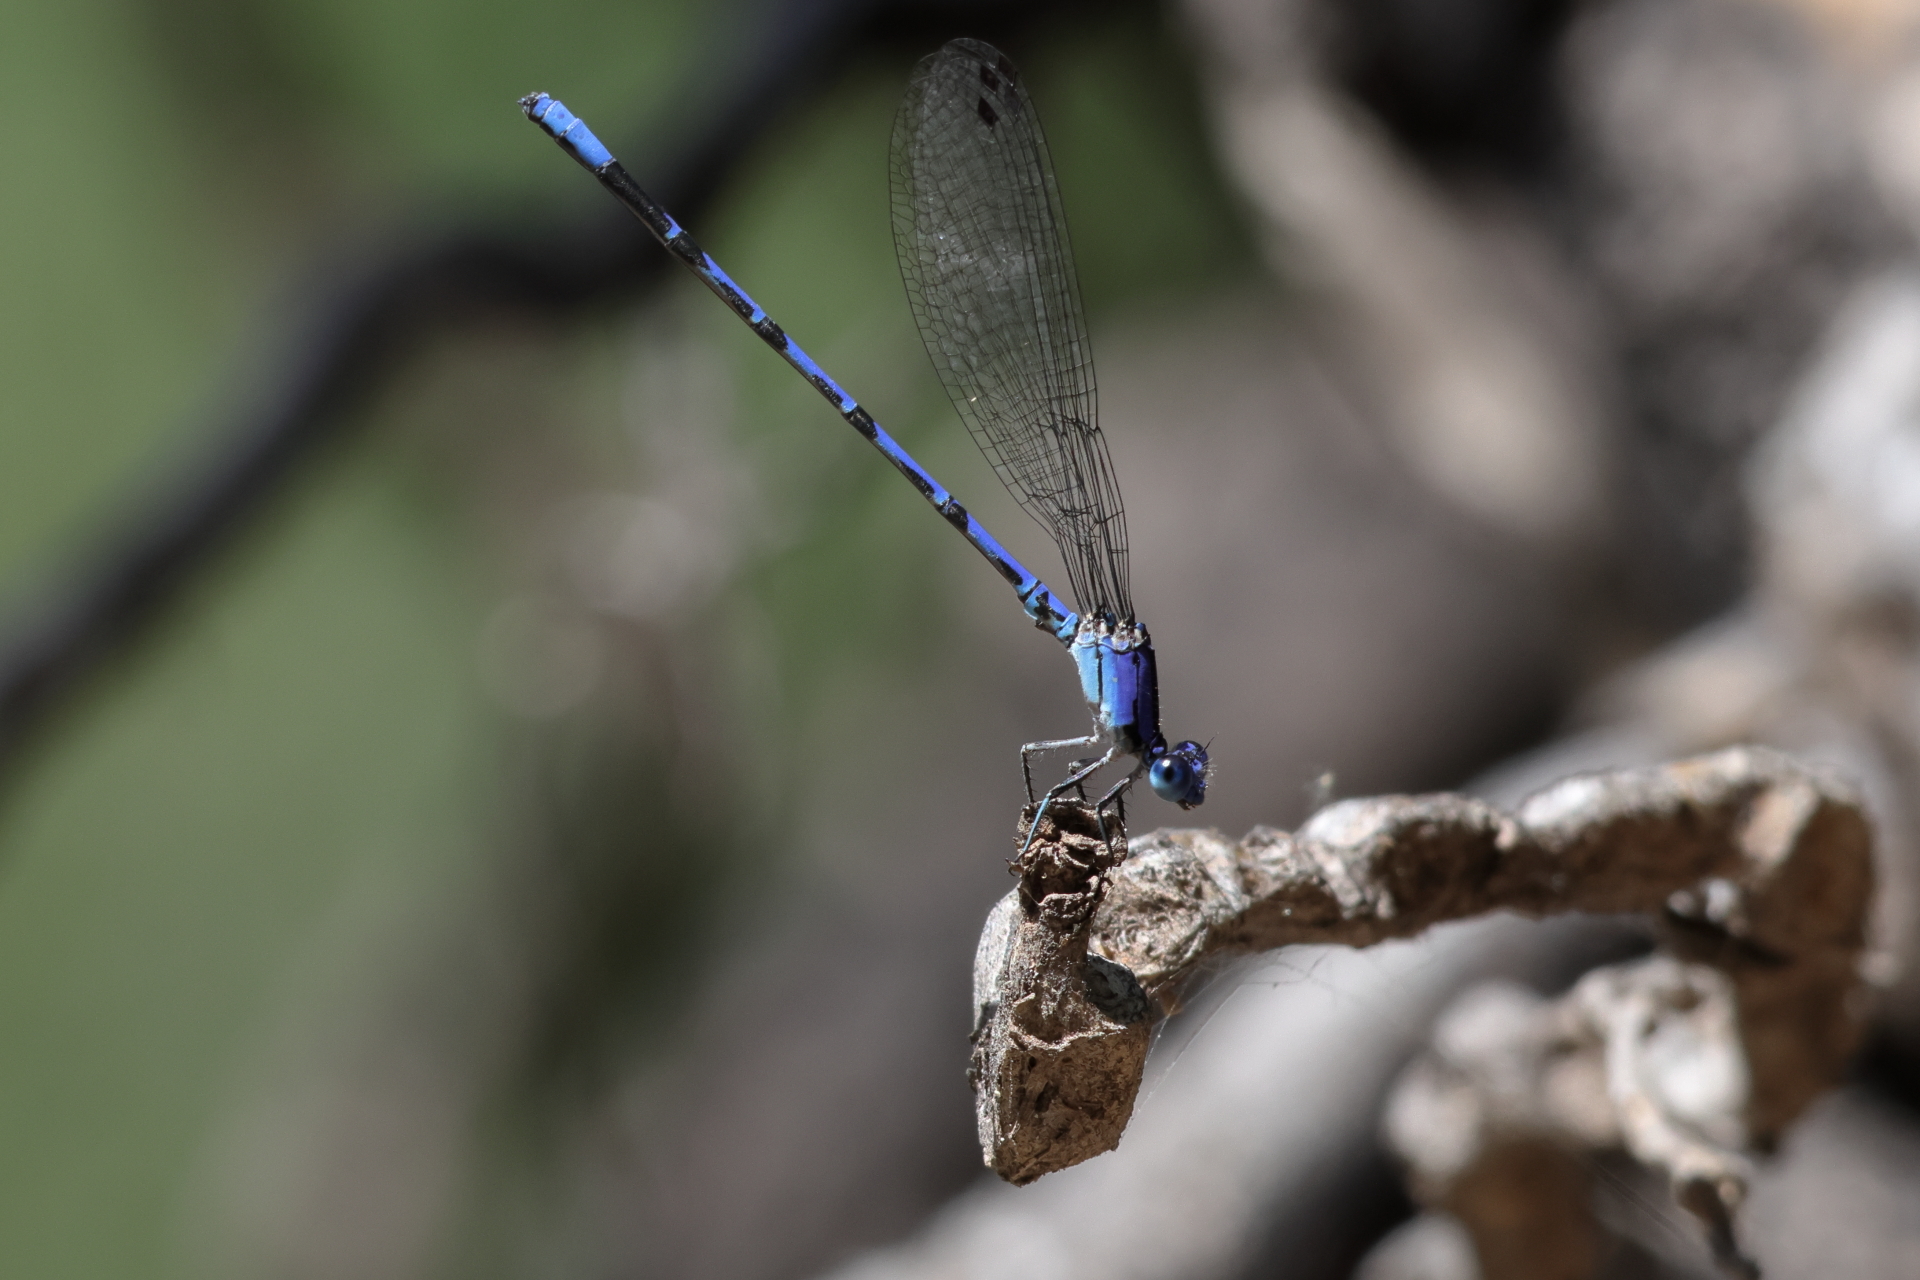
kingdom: Animalia
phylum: Arthropoda
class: Insecta
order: Odonata
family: Coenagrionidae
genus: Argia
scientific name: Argia extranea
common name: Spine-tipped dancer
